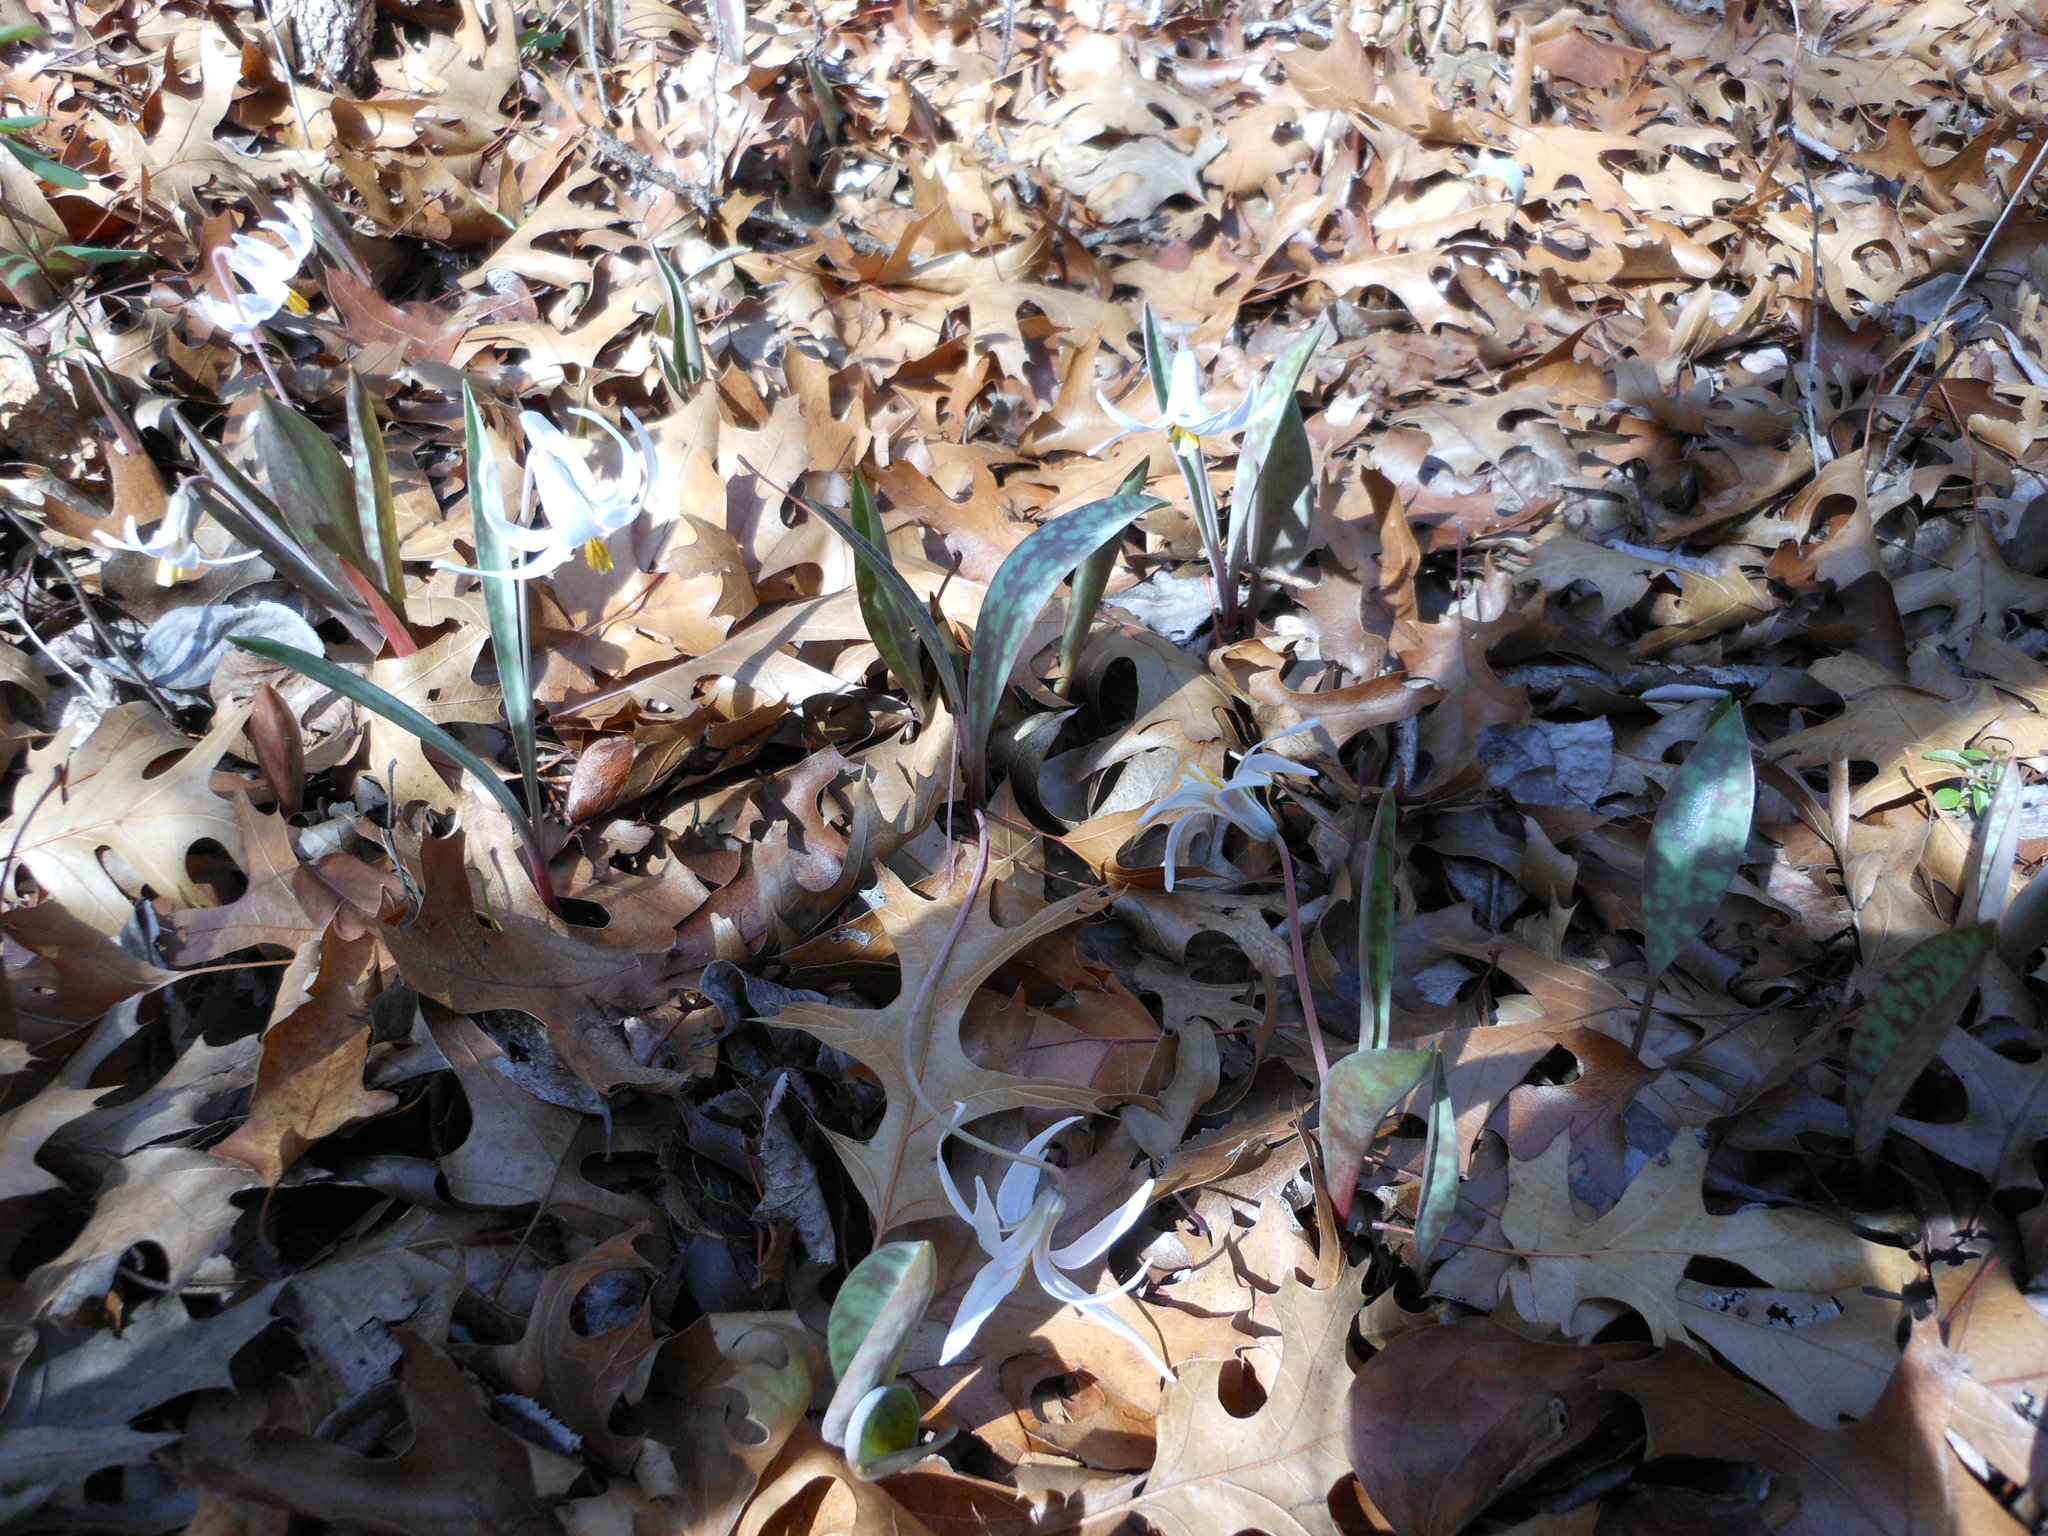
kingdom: Plantae
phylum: Tracheophyta
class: Liliopsida
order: Liliales
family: Liliaceae
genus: Erythronium
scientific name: Erythronium albidum
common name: White trout-lily
